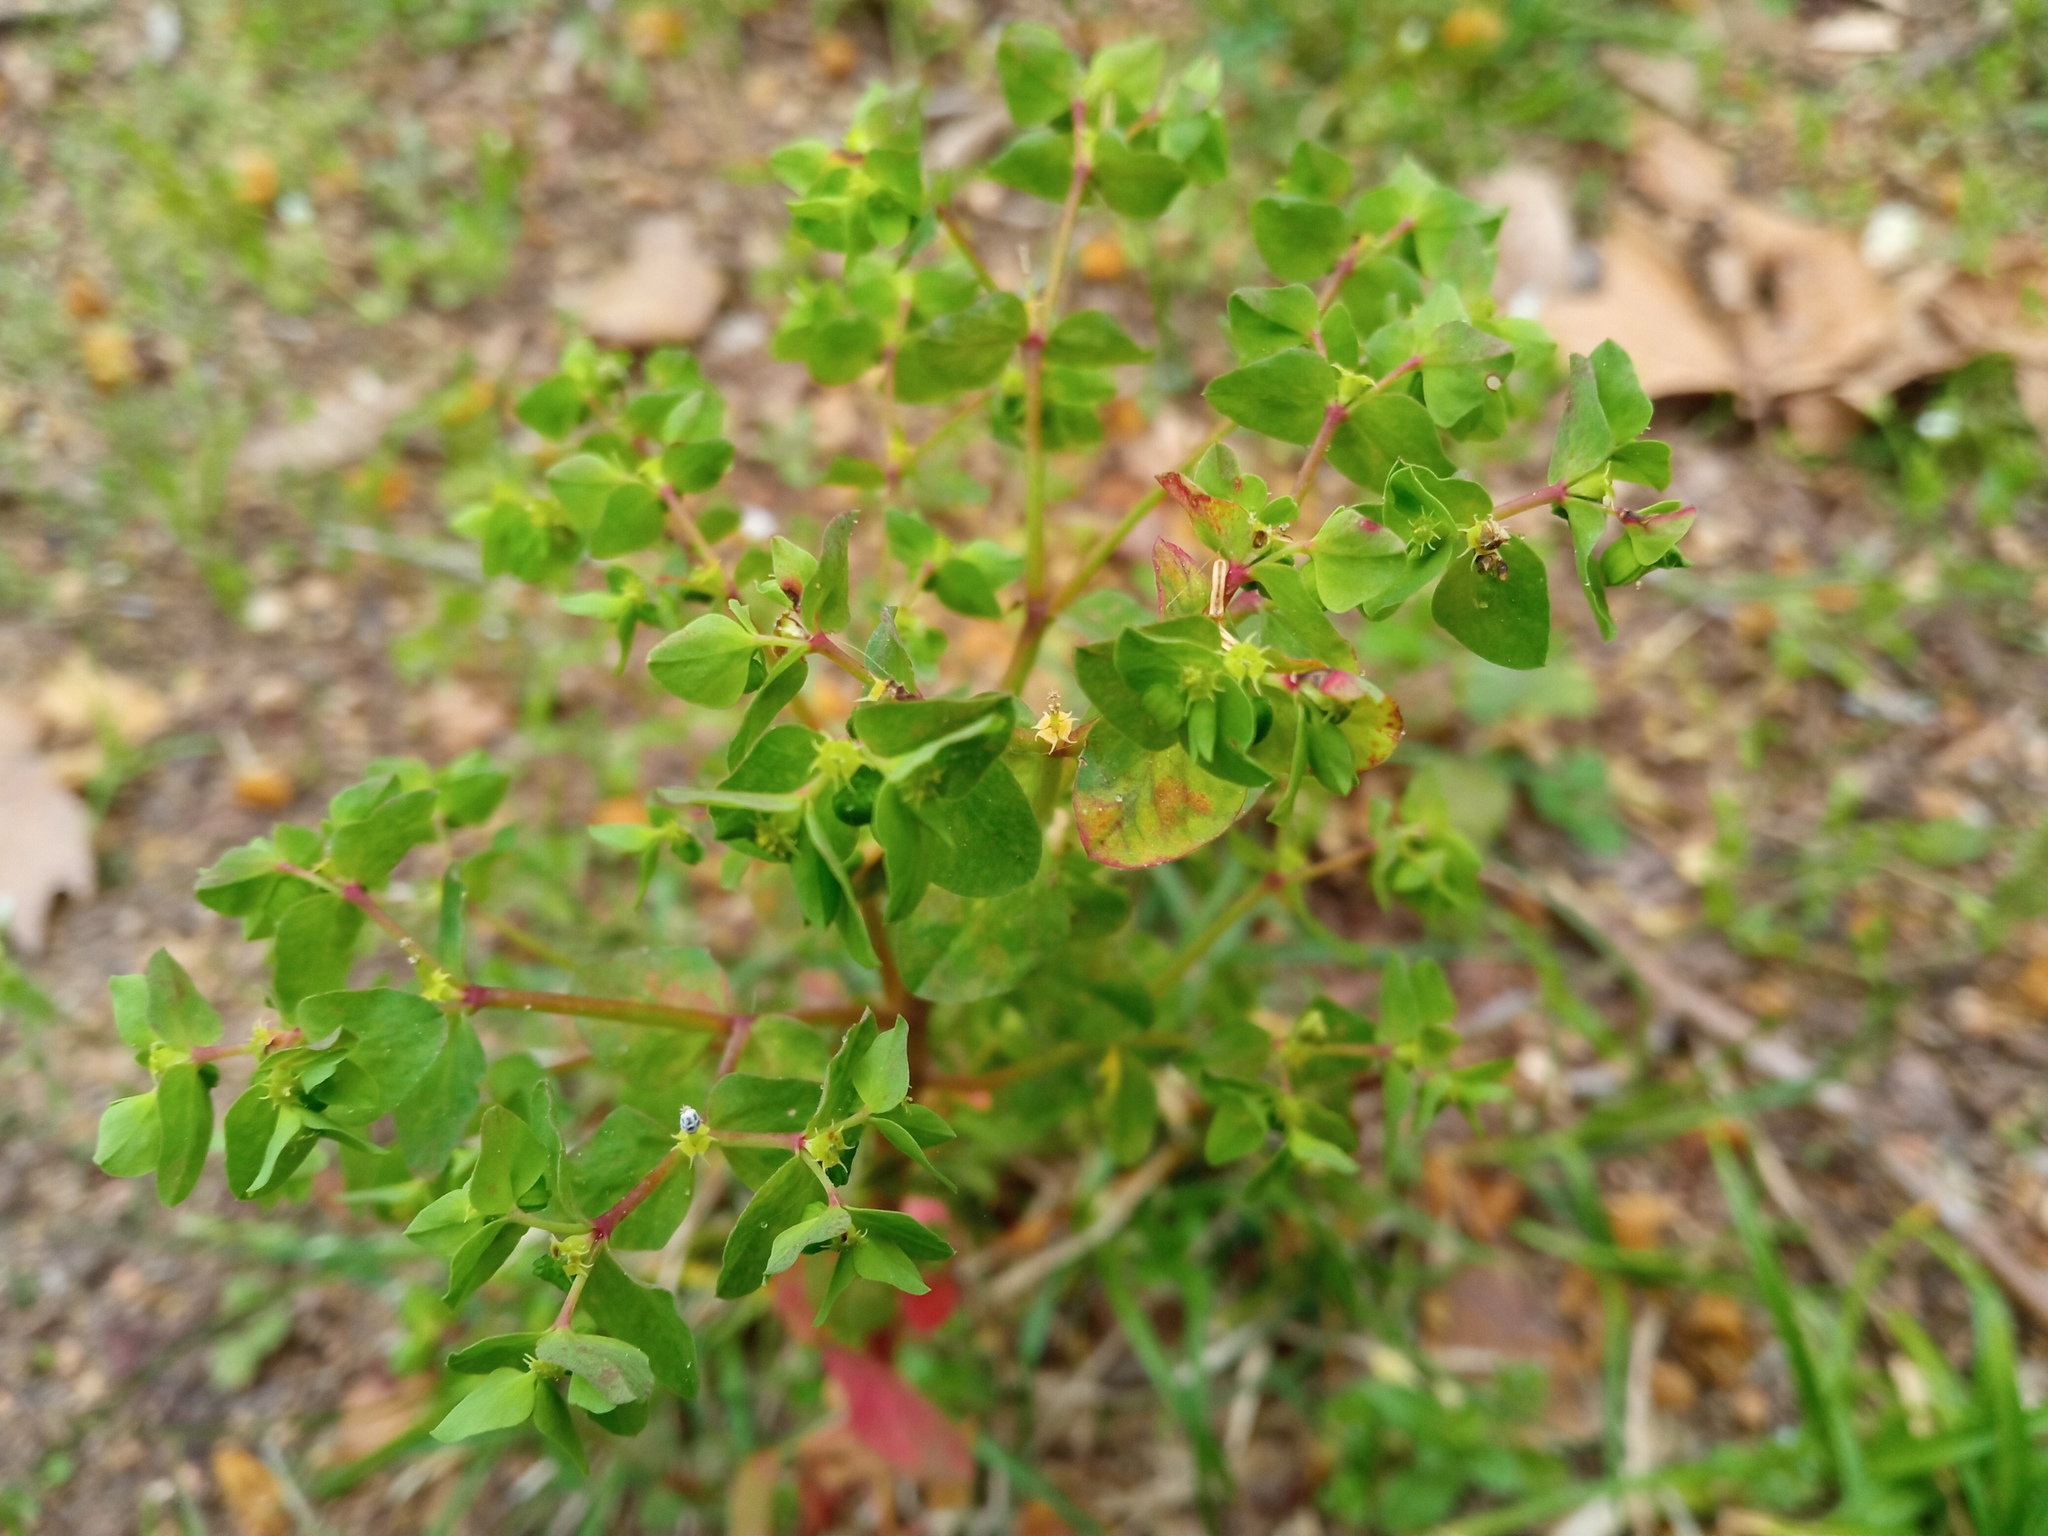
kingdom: Plantae
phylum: Tracheophyta
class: Magnoliopsida
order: Malpighiales
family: Euphorbiaceae
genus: Euphorbia
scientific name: Euphorbia peplus
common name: Petty spurge
